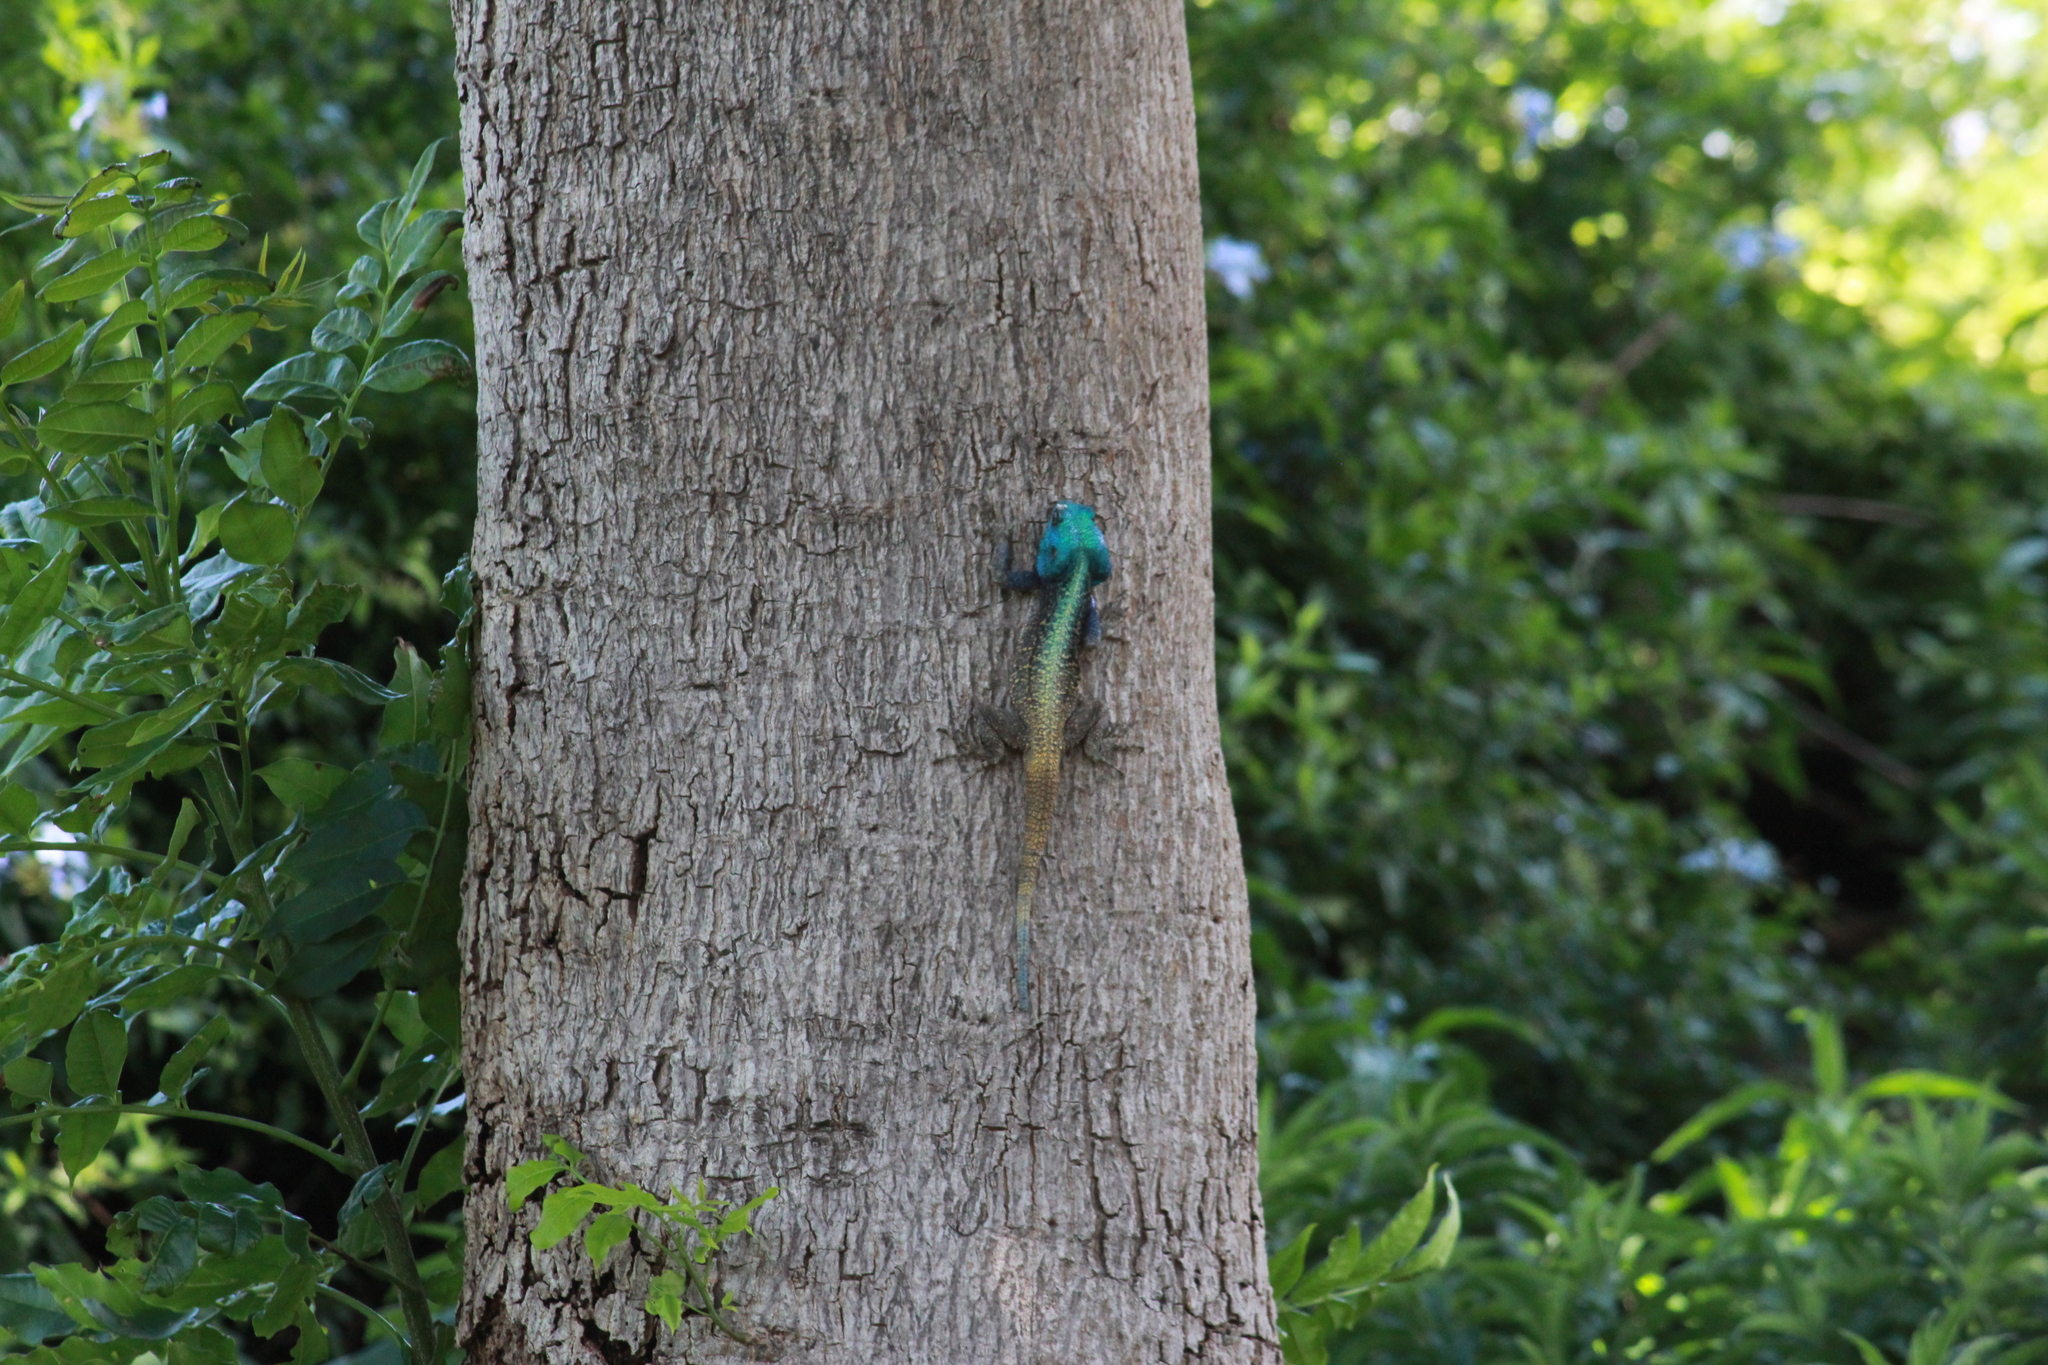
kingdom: Animalia
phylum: Chordata
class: Squamata
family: Agamidae
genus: Acanthocercus
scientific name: Acanthocercus atricollis
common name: Southern tree agama
